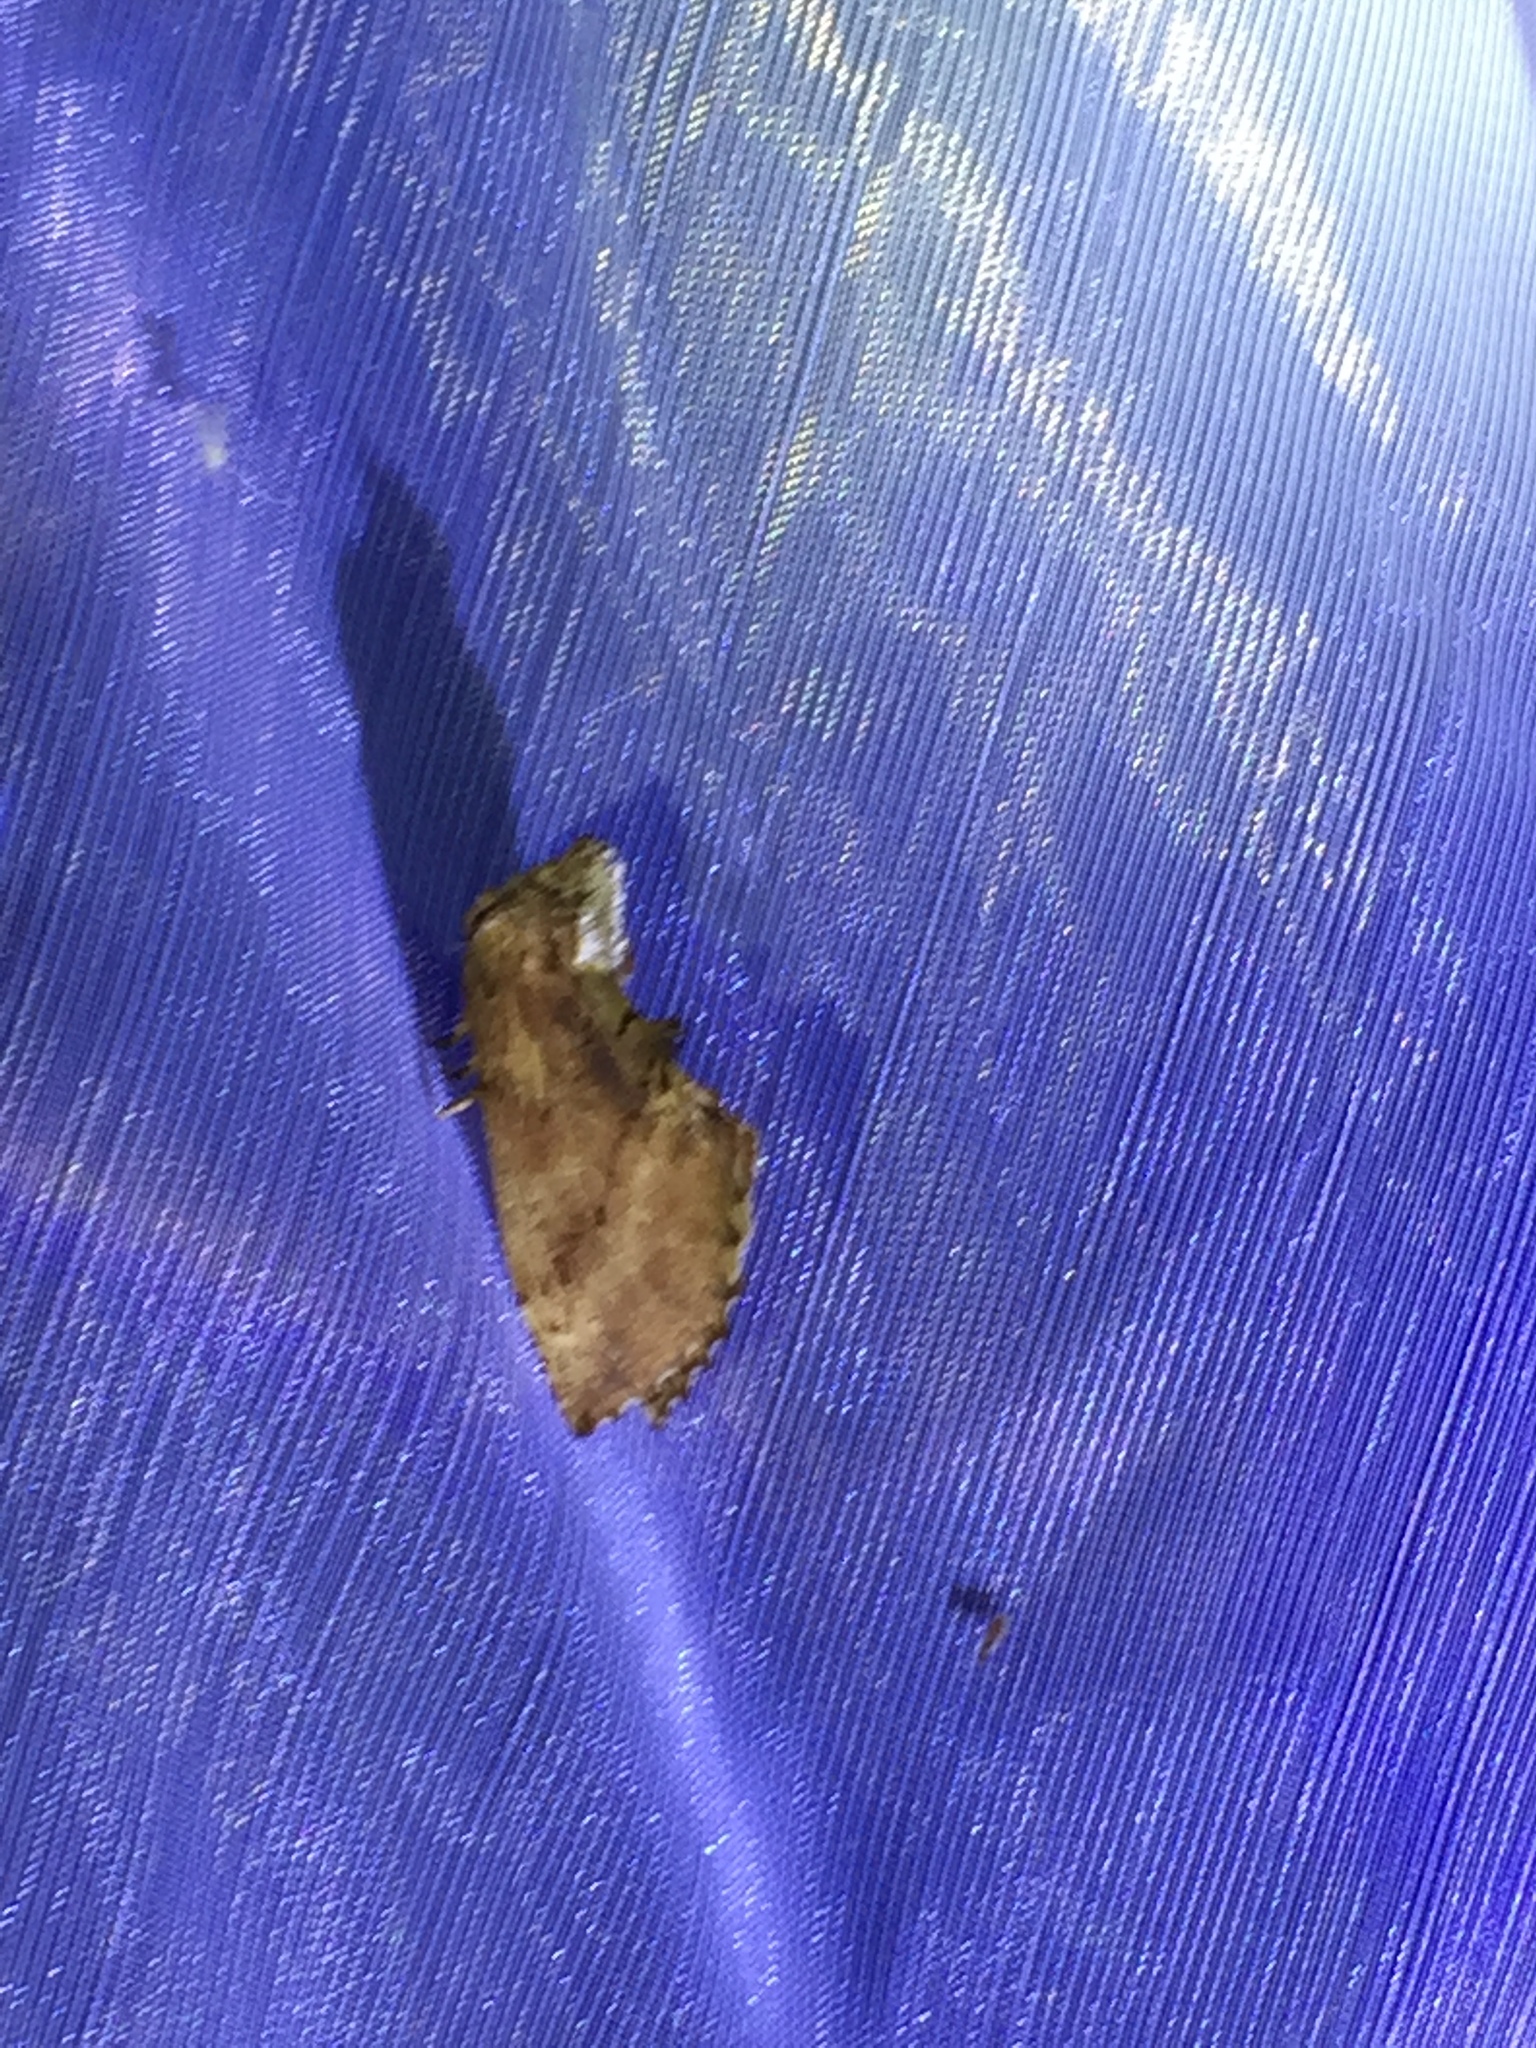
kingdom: Animalia
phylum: Arthropoda
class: Insecta
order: Lepidoptera
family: Notodontidae
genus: Ptilodon
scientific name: Ptilodon capucina
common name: Coxcomb prominent
